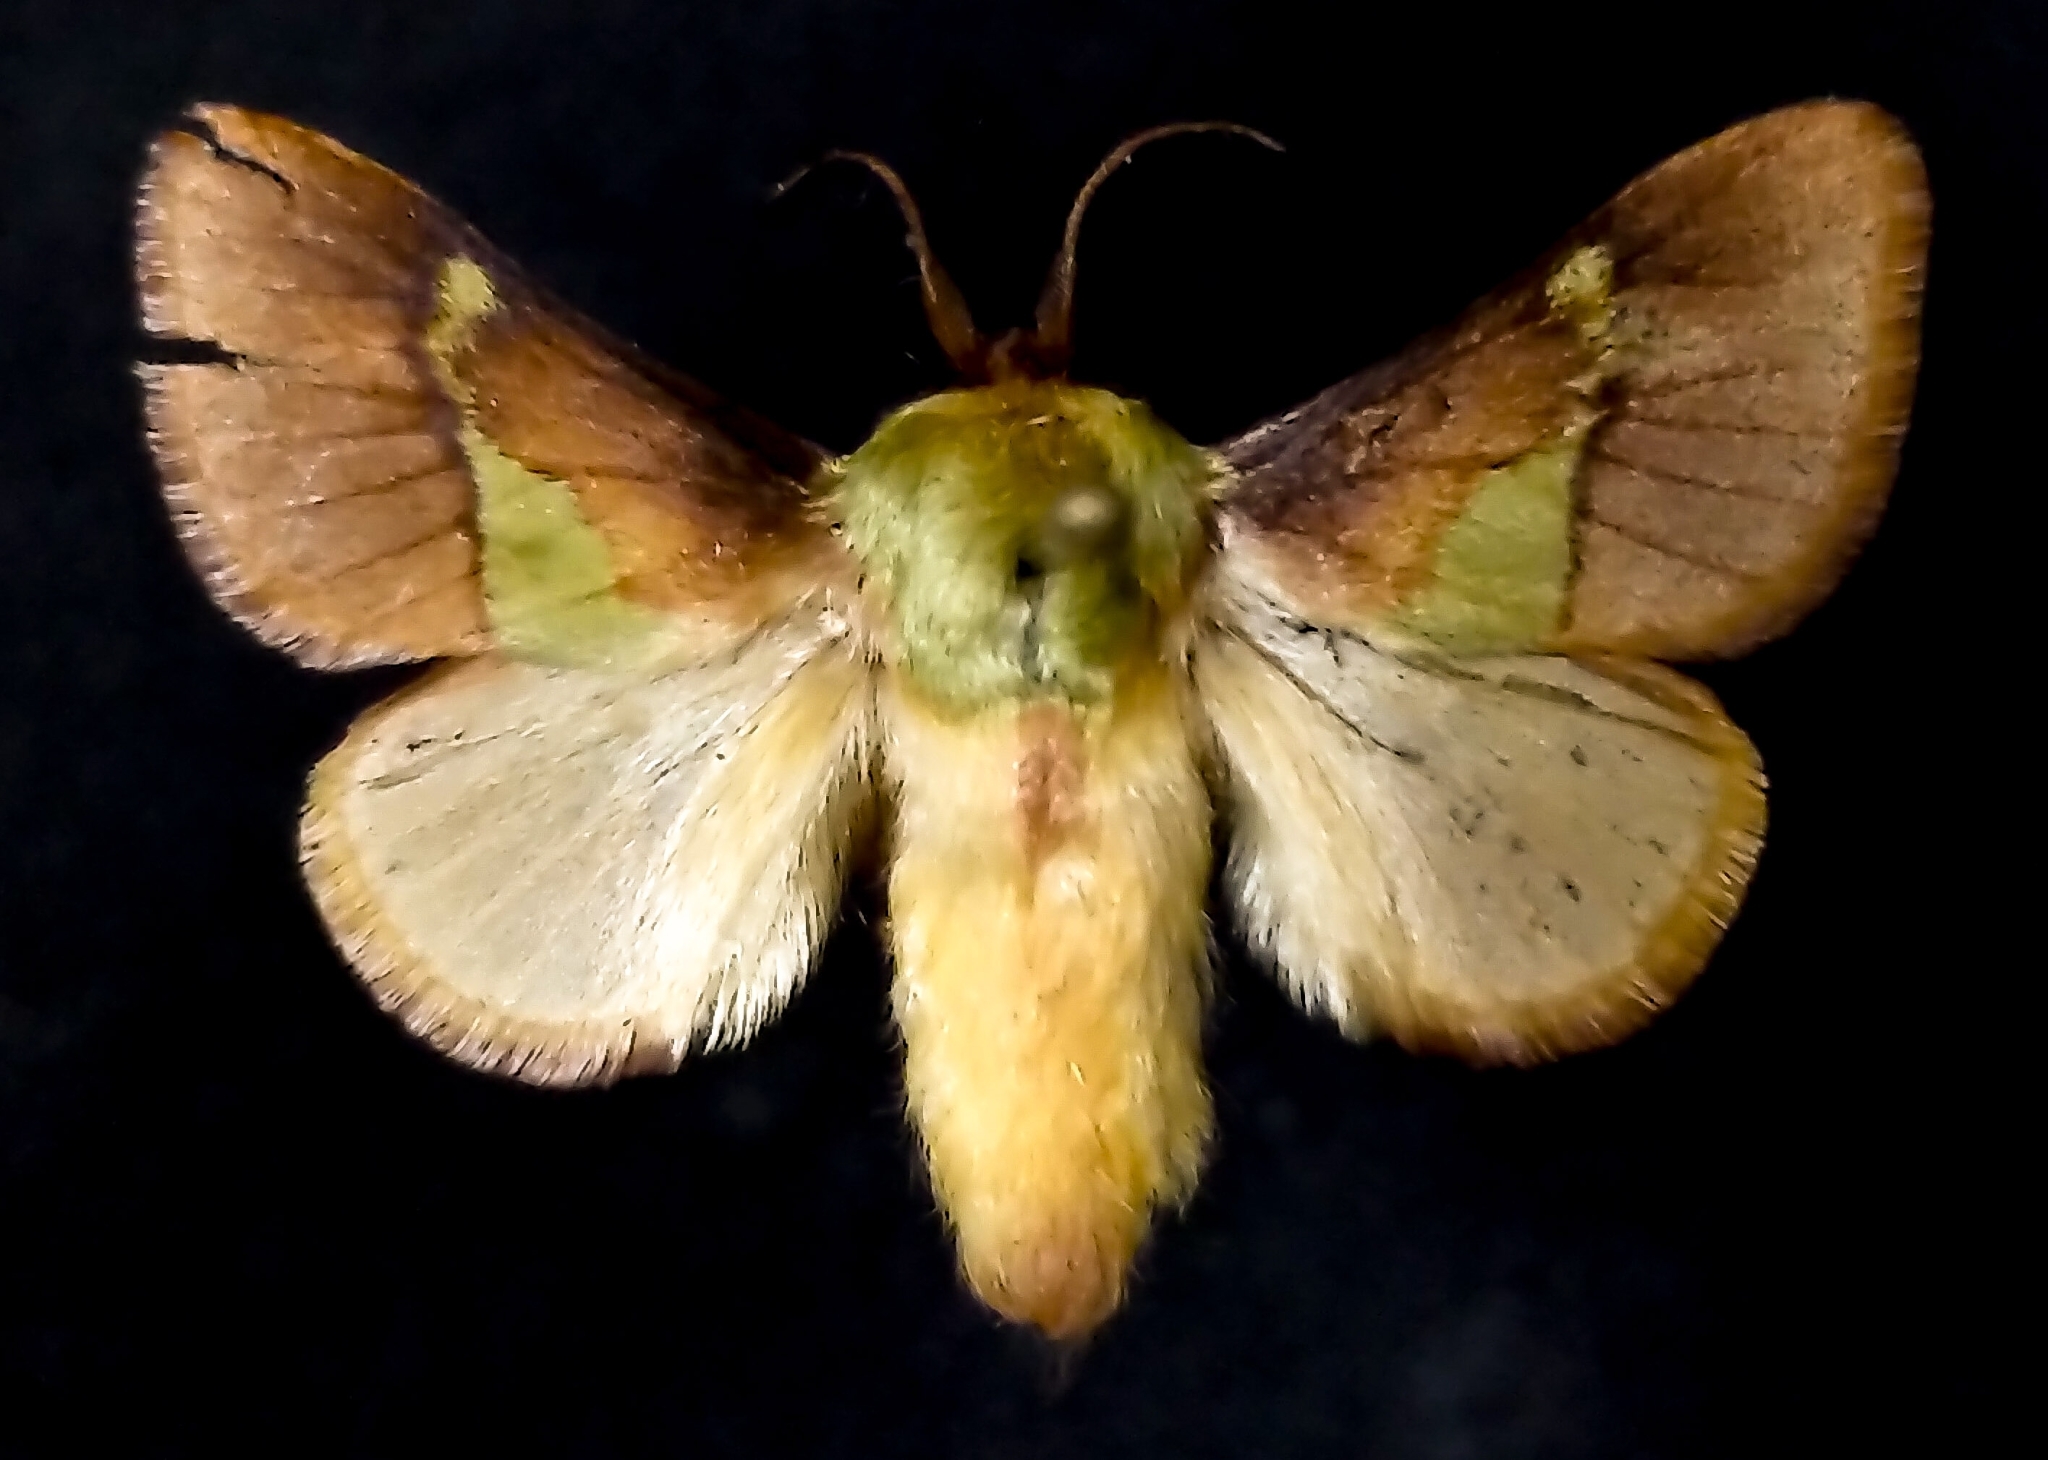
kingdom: Animalia
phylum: Arthropoda
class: Insecta
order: Lepidoptera
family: Limacodidae
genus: Latoia
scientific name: Latoia viridifascia
